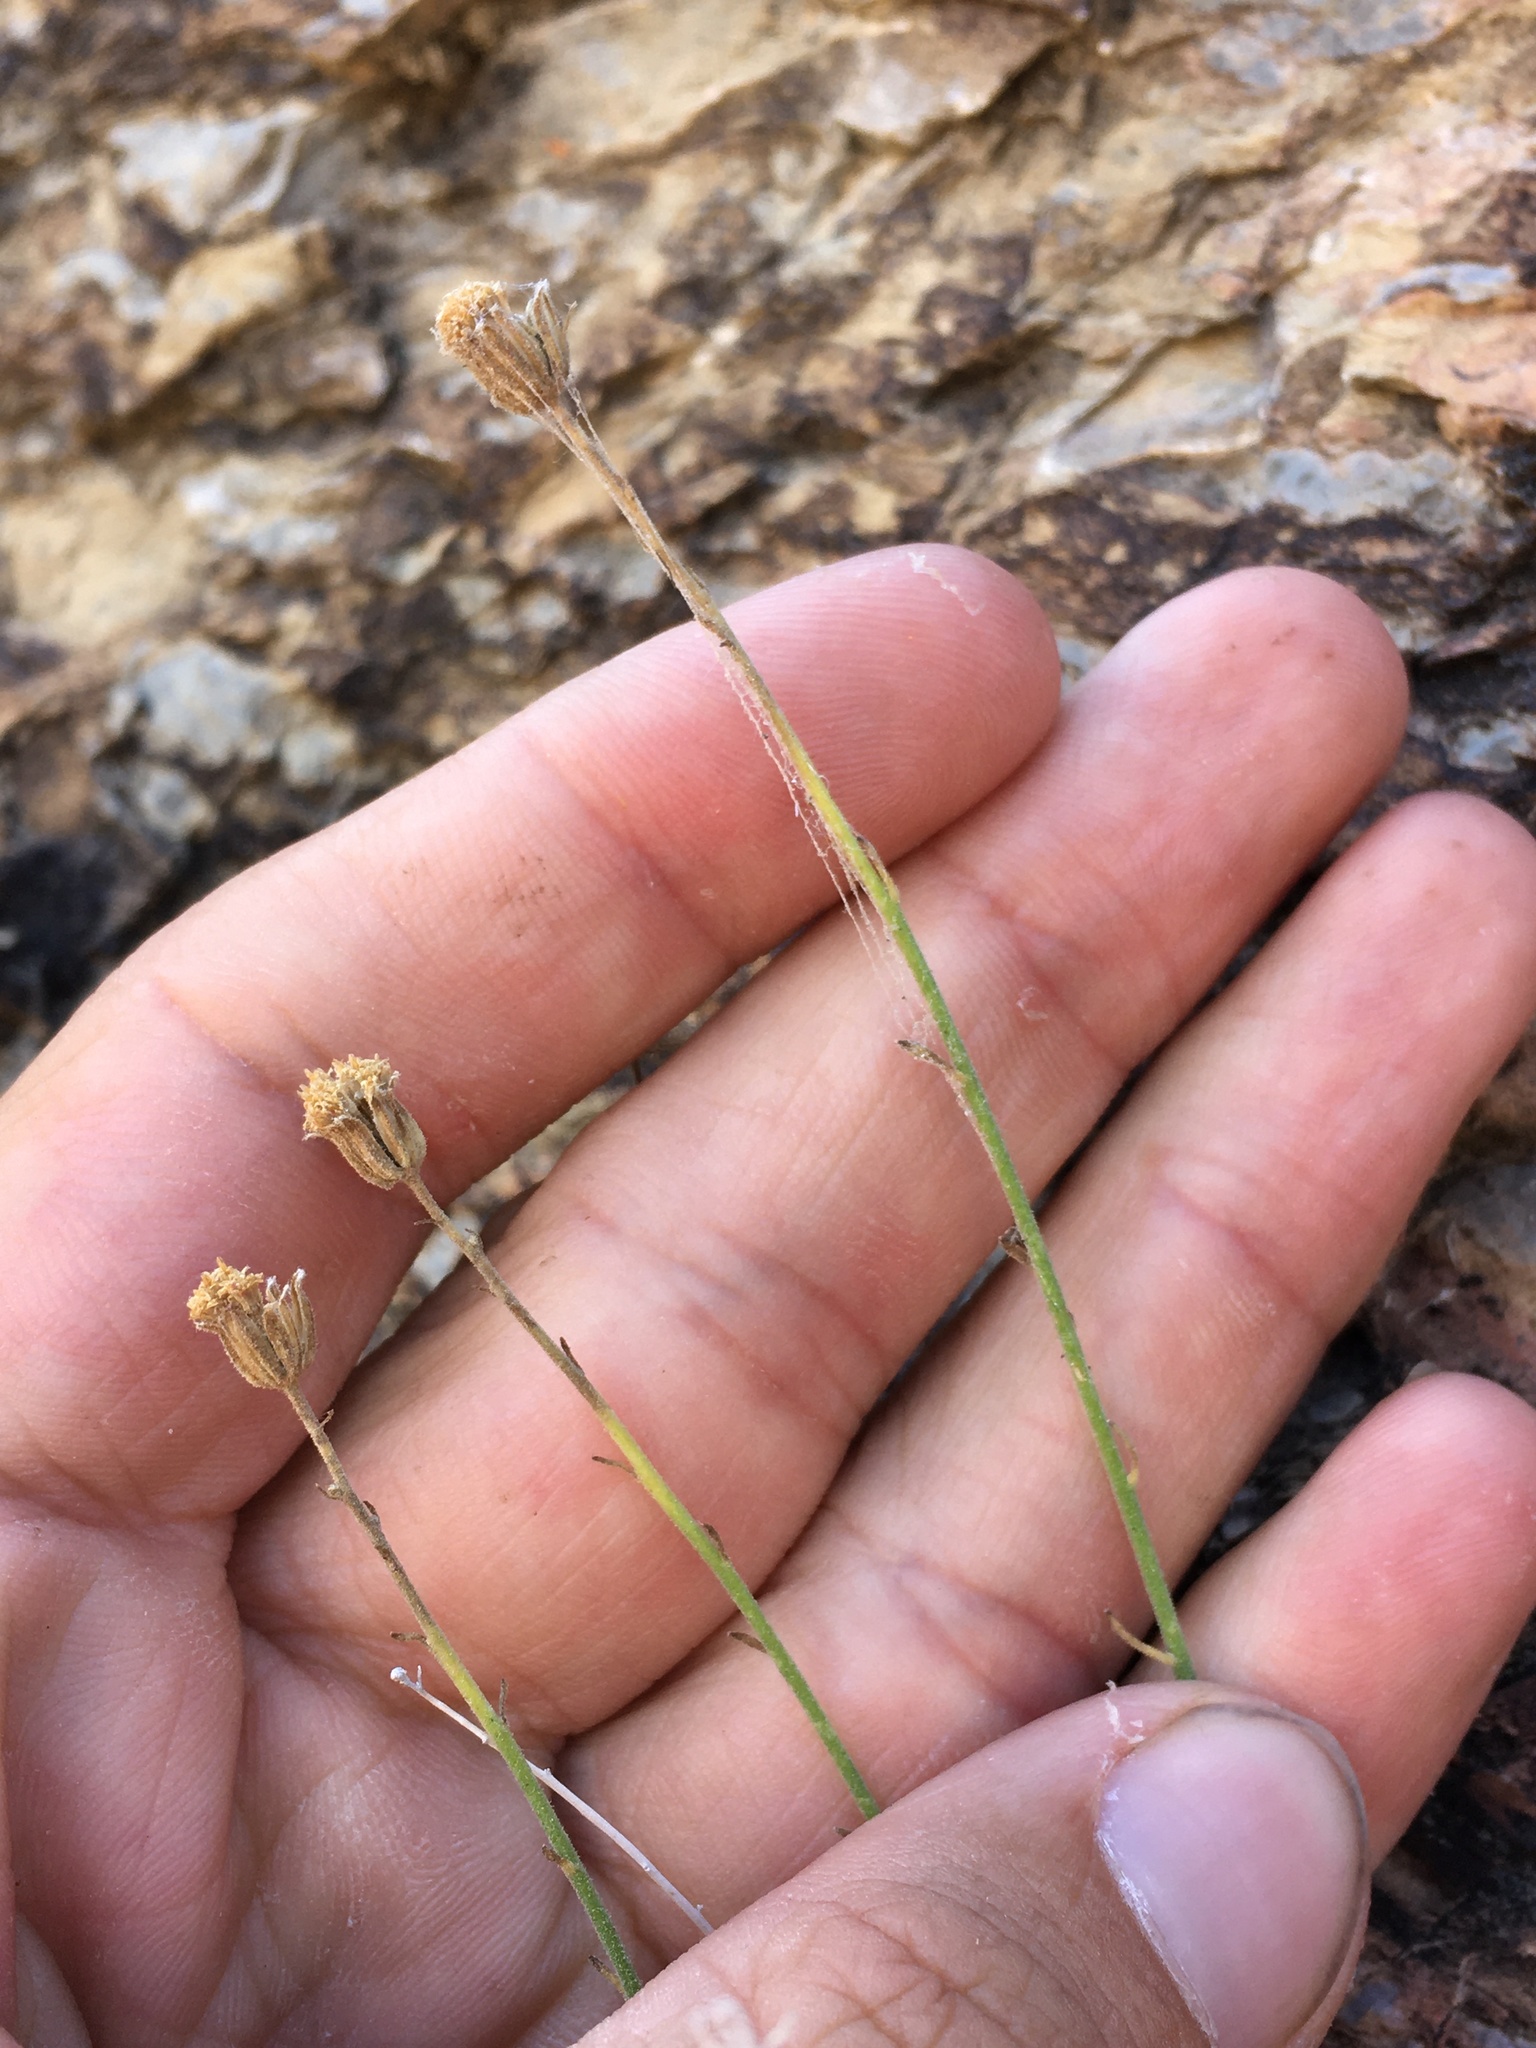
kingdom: Plantae
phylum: Tracheophyta
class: Magnoliopsida
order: Asterales
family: Asteraceae
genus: Laphamia
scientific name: Laphamia megalocephala
